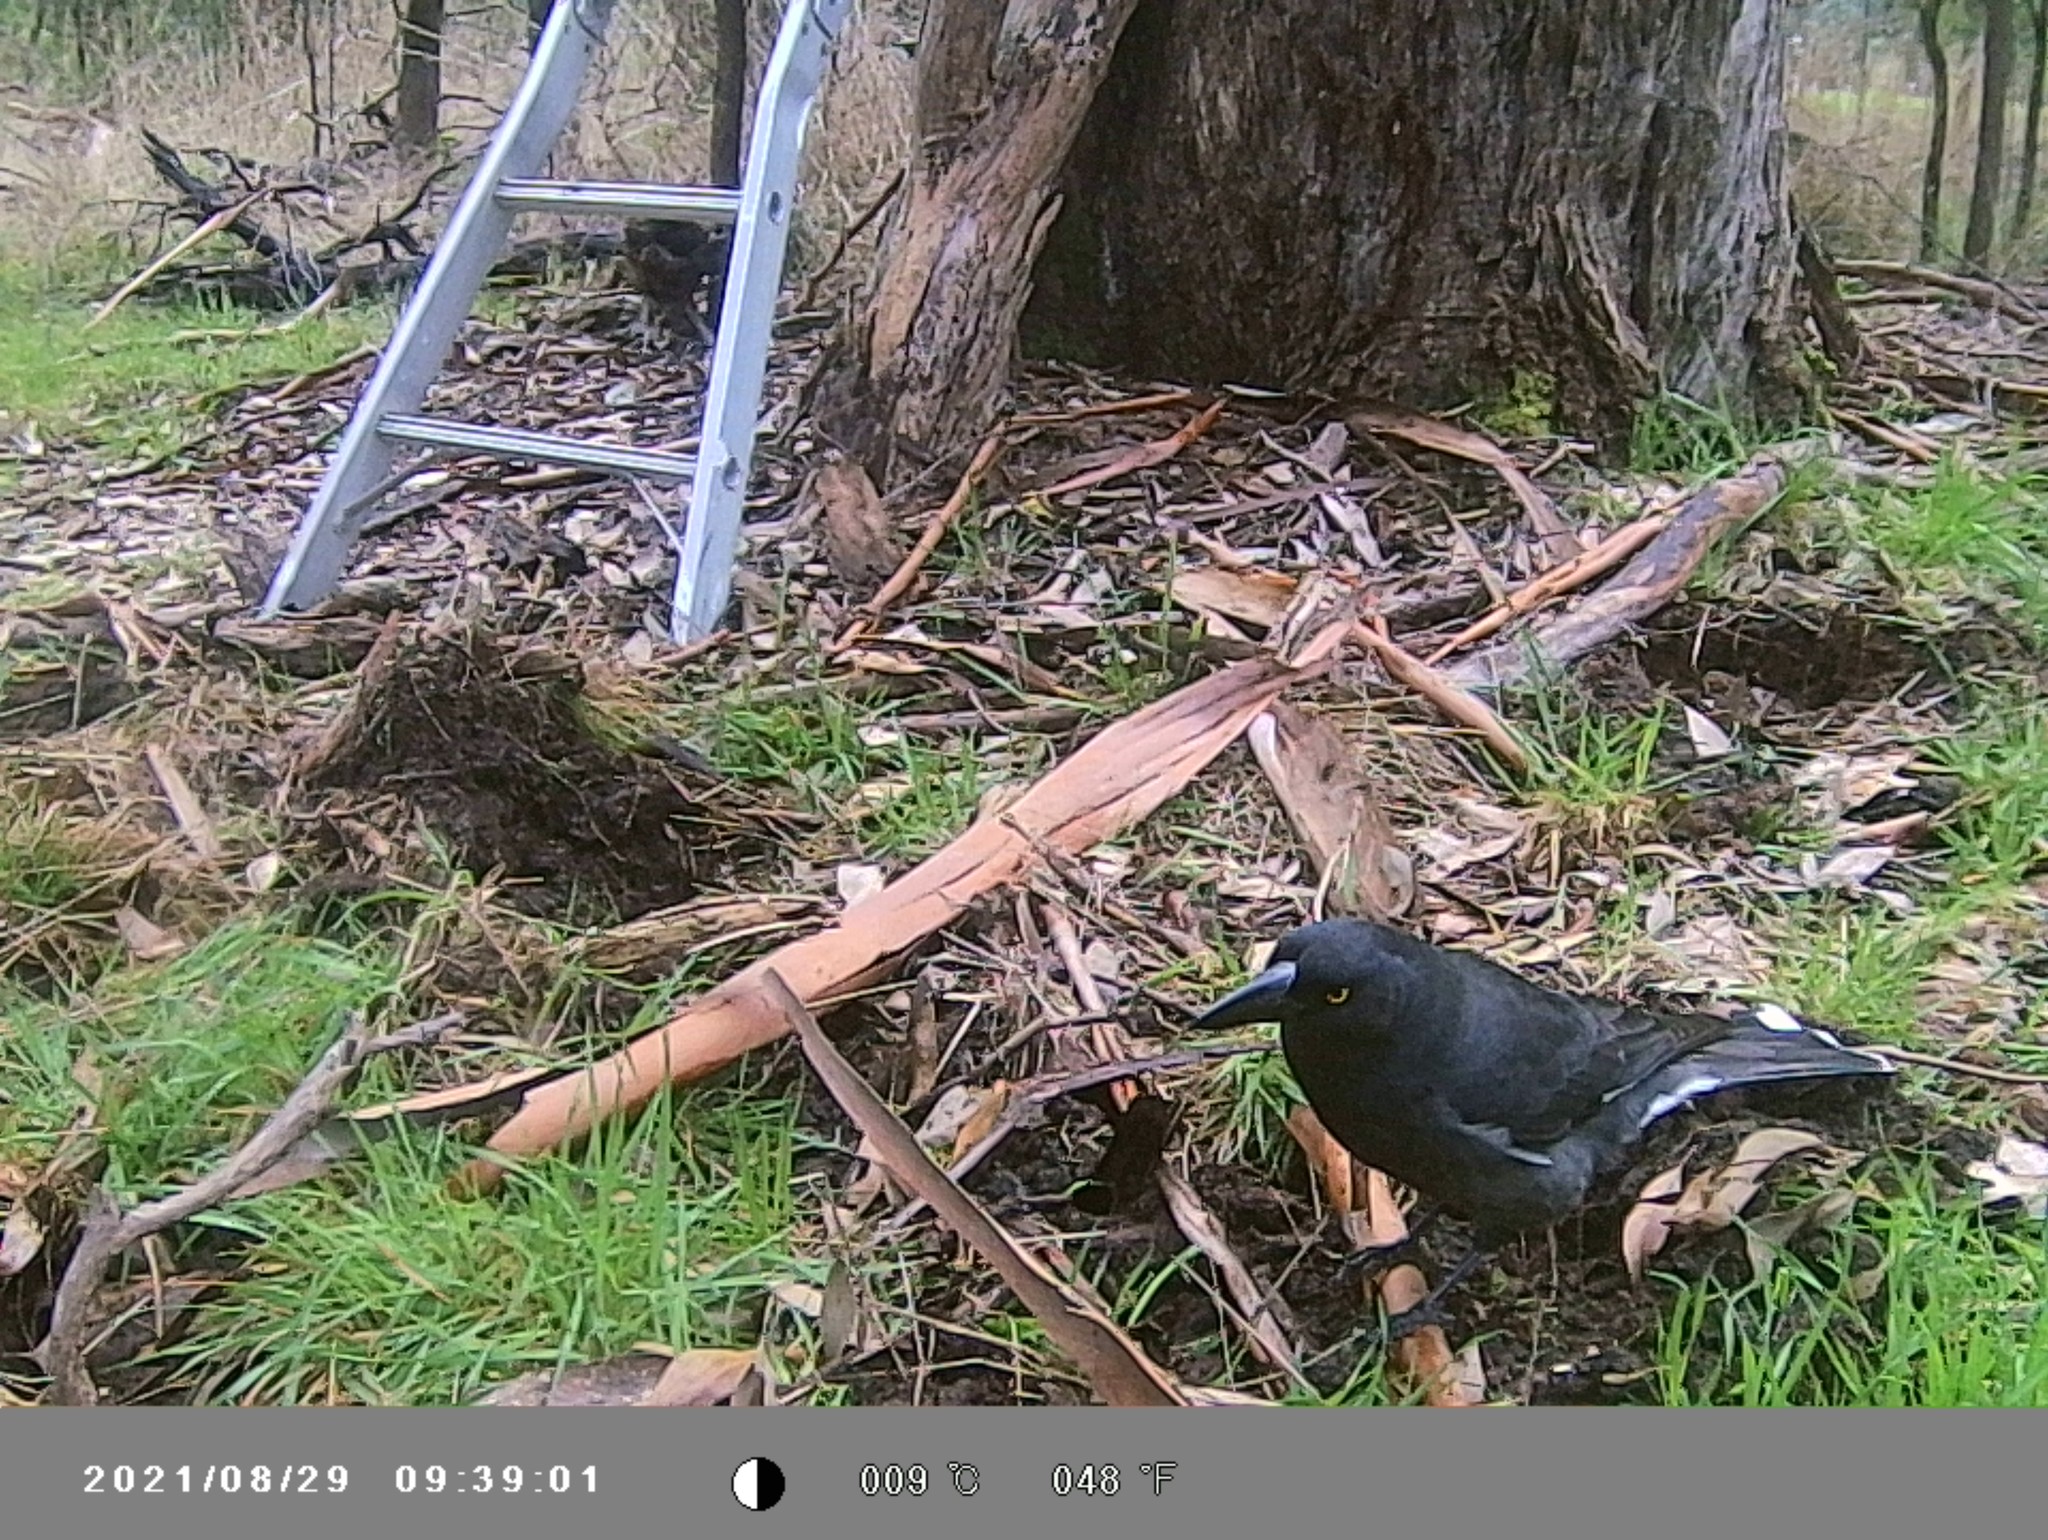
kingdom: Animalia
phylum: Chordata
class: Aves
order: Passeriformes
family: Cracticidae
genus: Strepera
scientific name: Strepera graculina
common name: Pied currawong
